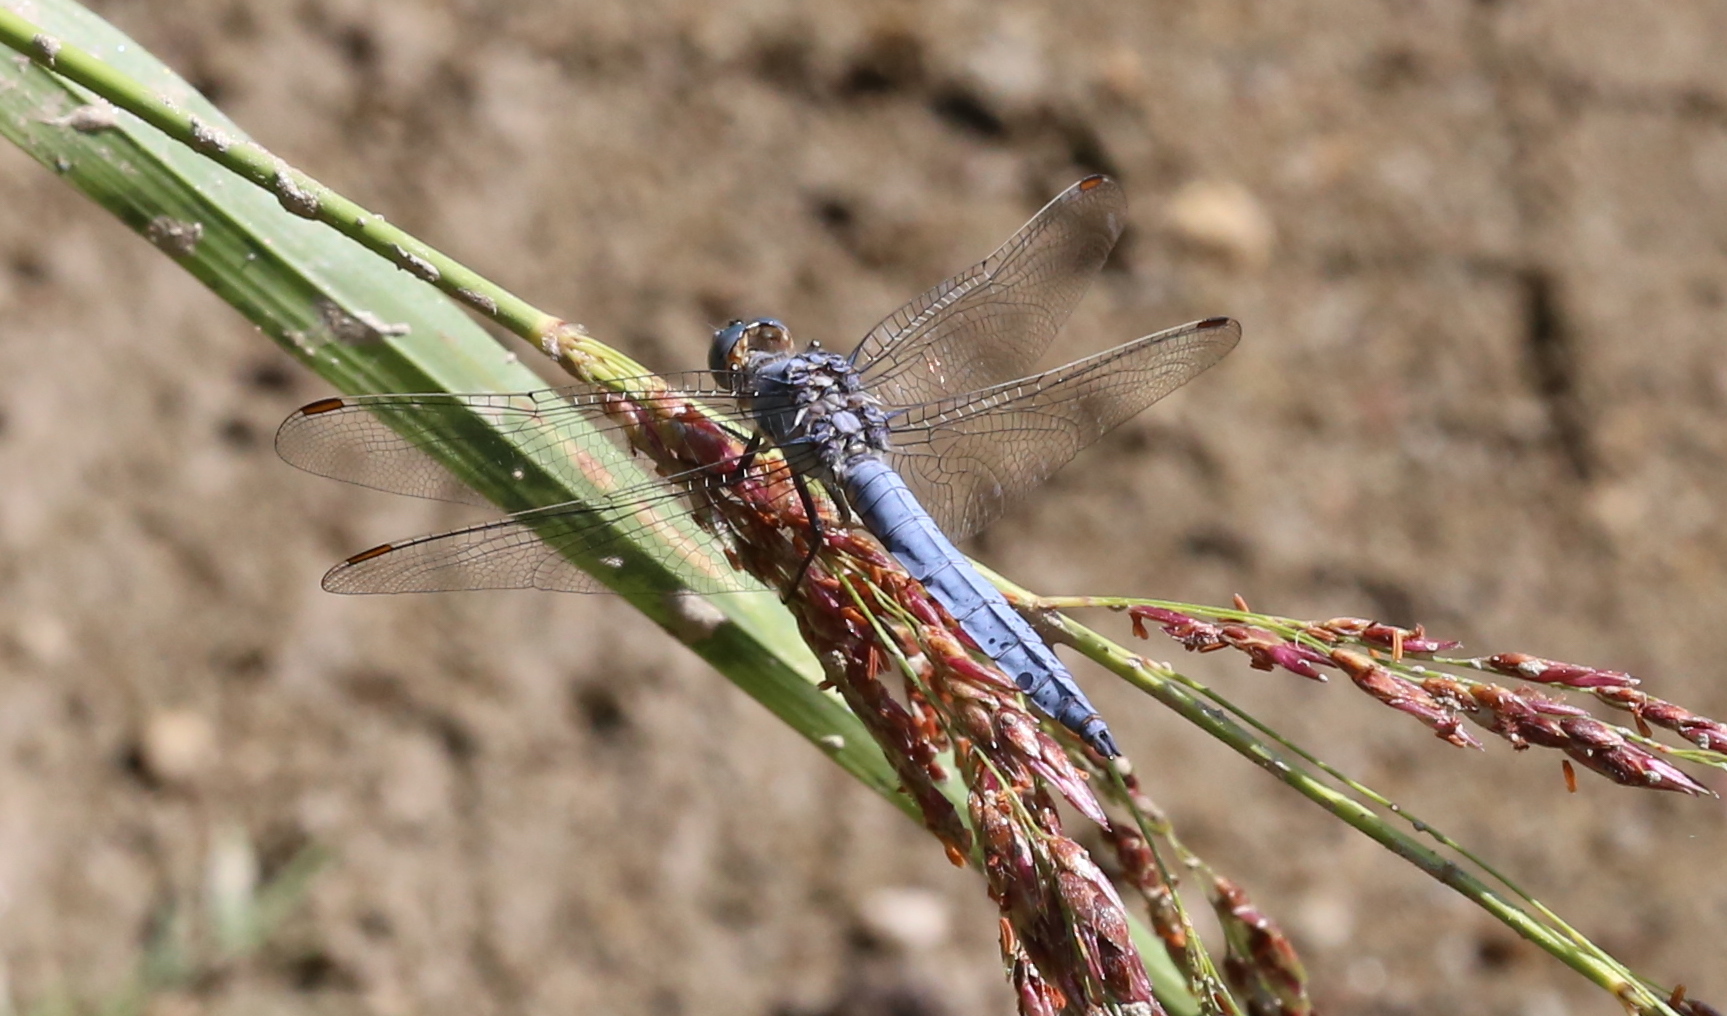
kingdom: Animalia
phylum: Arthropoda
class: Insecta
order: Odonata
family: Libellulidae
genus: Orthetrum
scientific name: Orthetrum brunneum
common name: Southern skimmer
